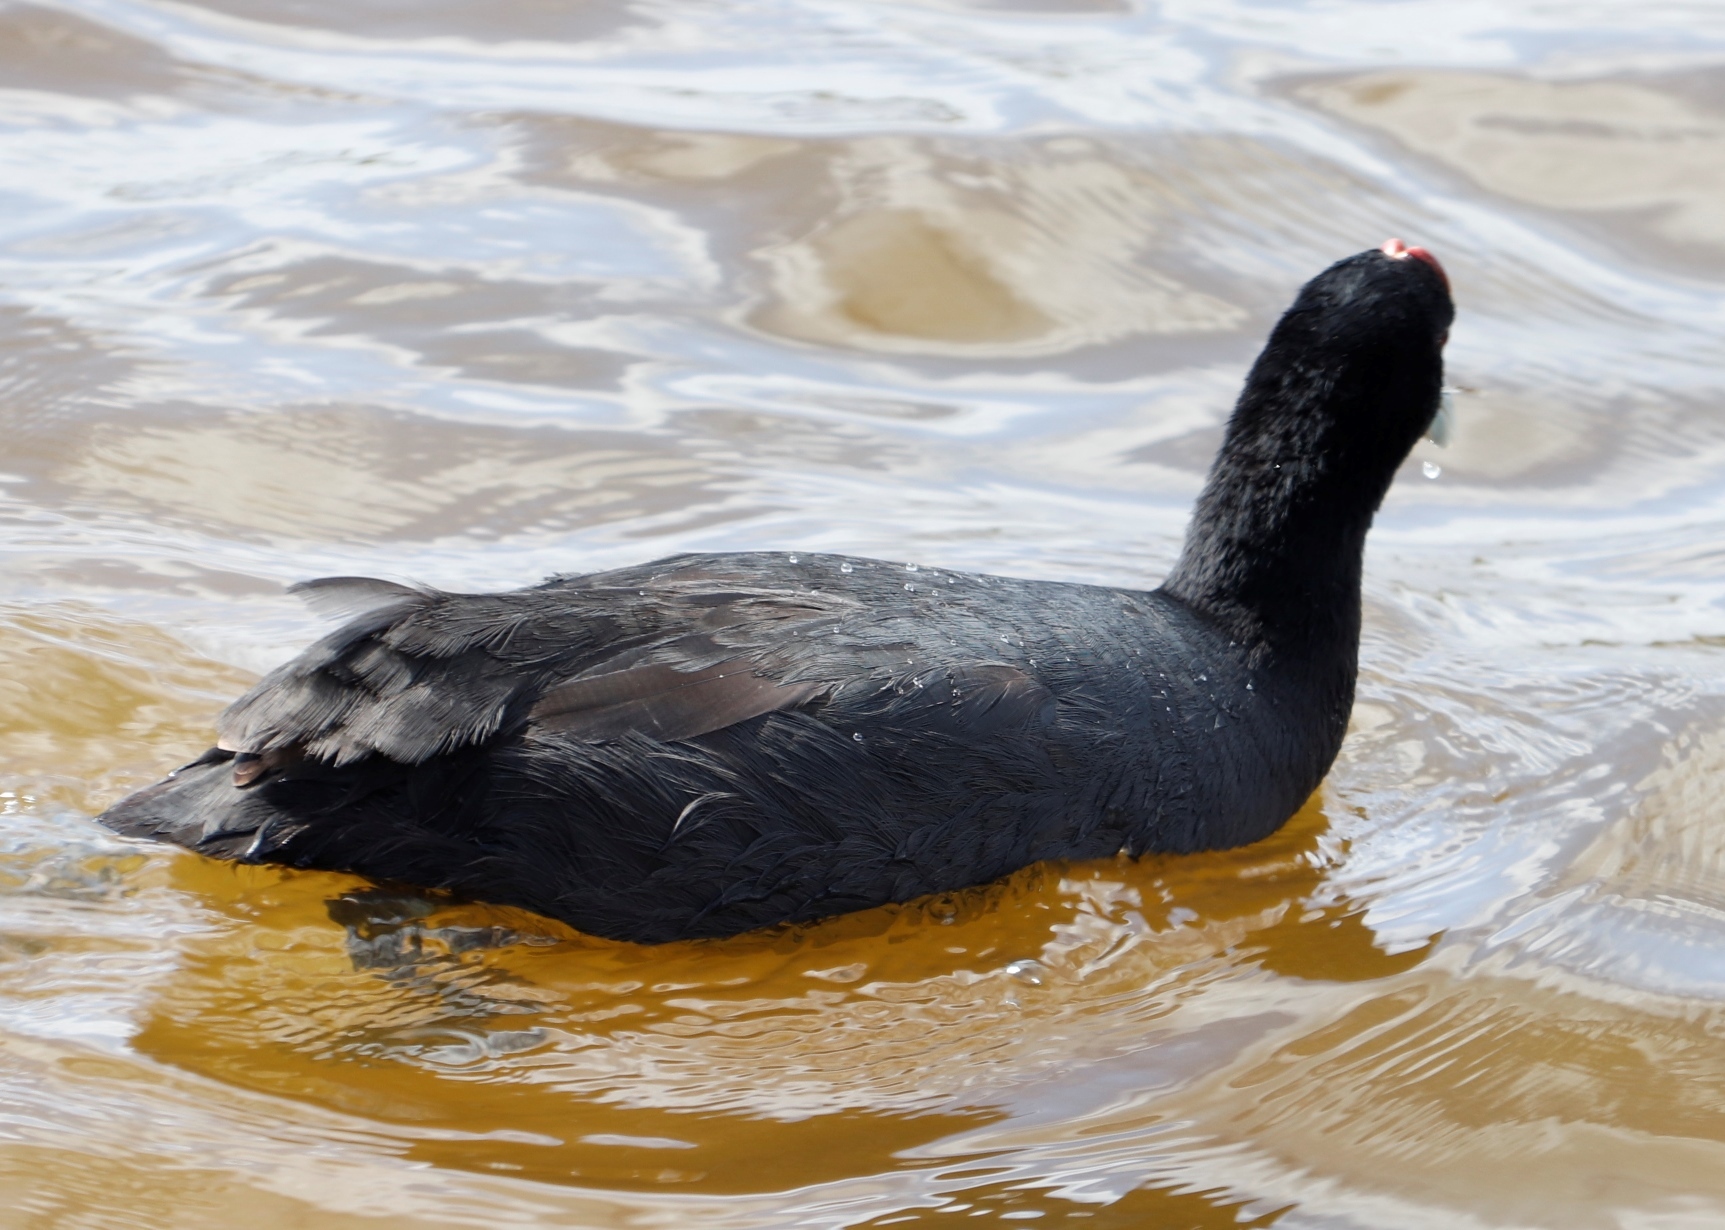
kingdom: Animalia
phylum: Chordata
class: Aves
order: Gruiformes
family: Rallidae
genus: Fulica
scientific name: Fulica cristata
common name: Red-knobbed coot
